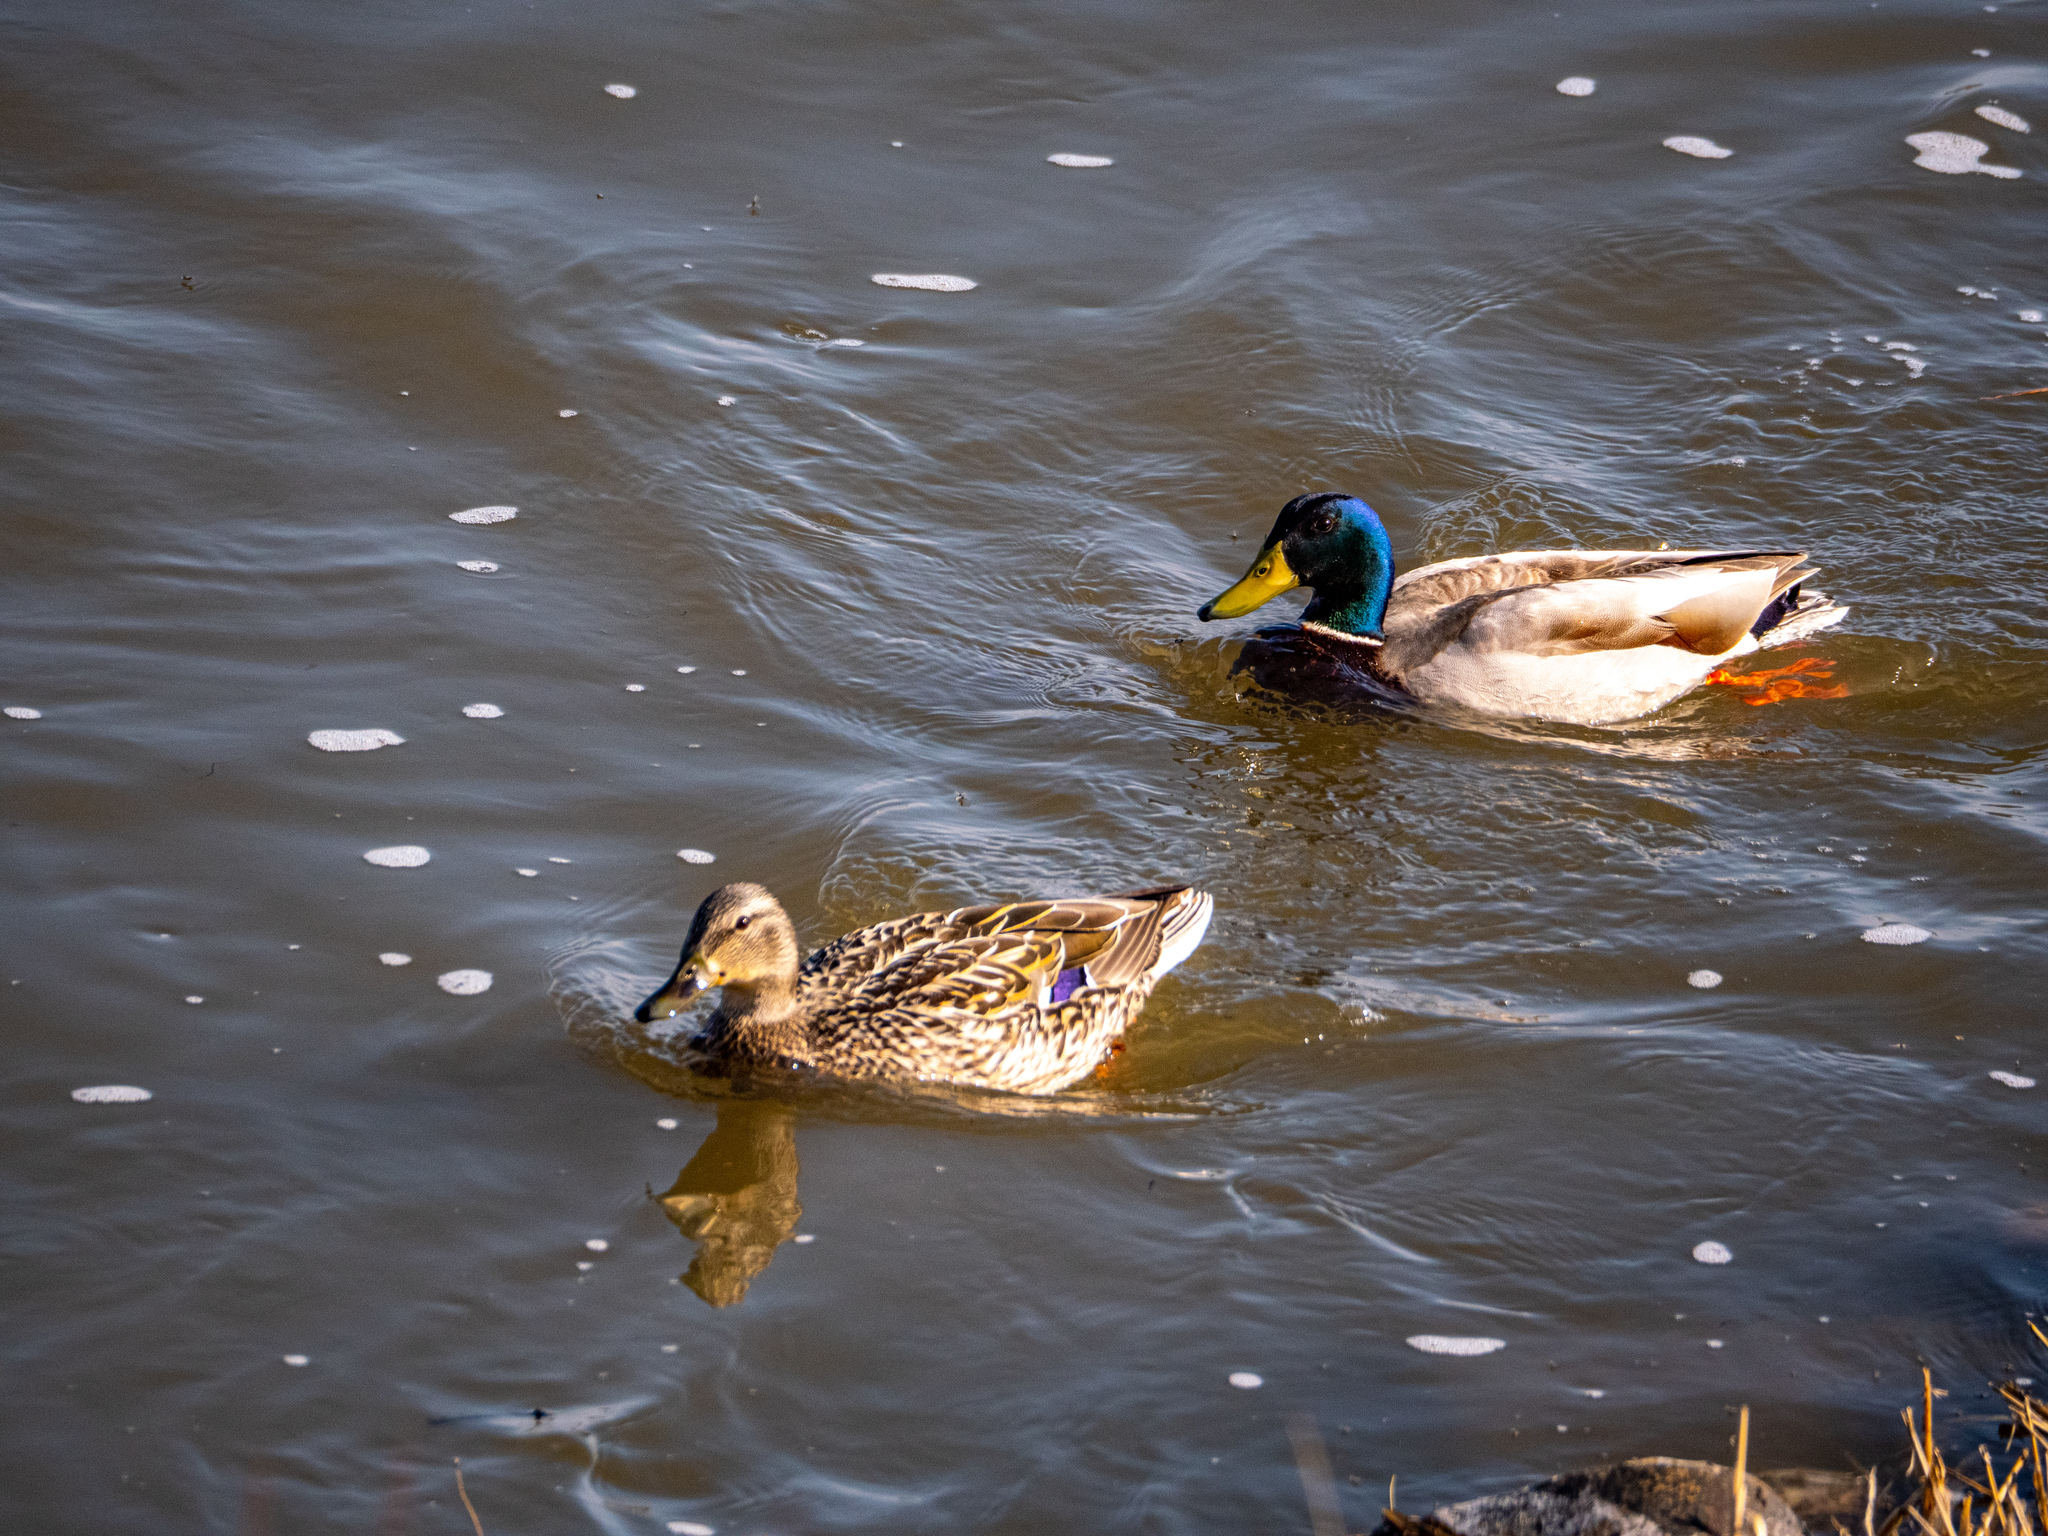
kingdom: Animalia
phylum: Chordata
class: Aves
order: Anseriformes
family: Anatidae
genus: Anas
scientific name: Anas platyrhynchos
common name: Mallard
